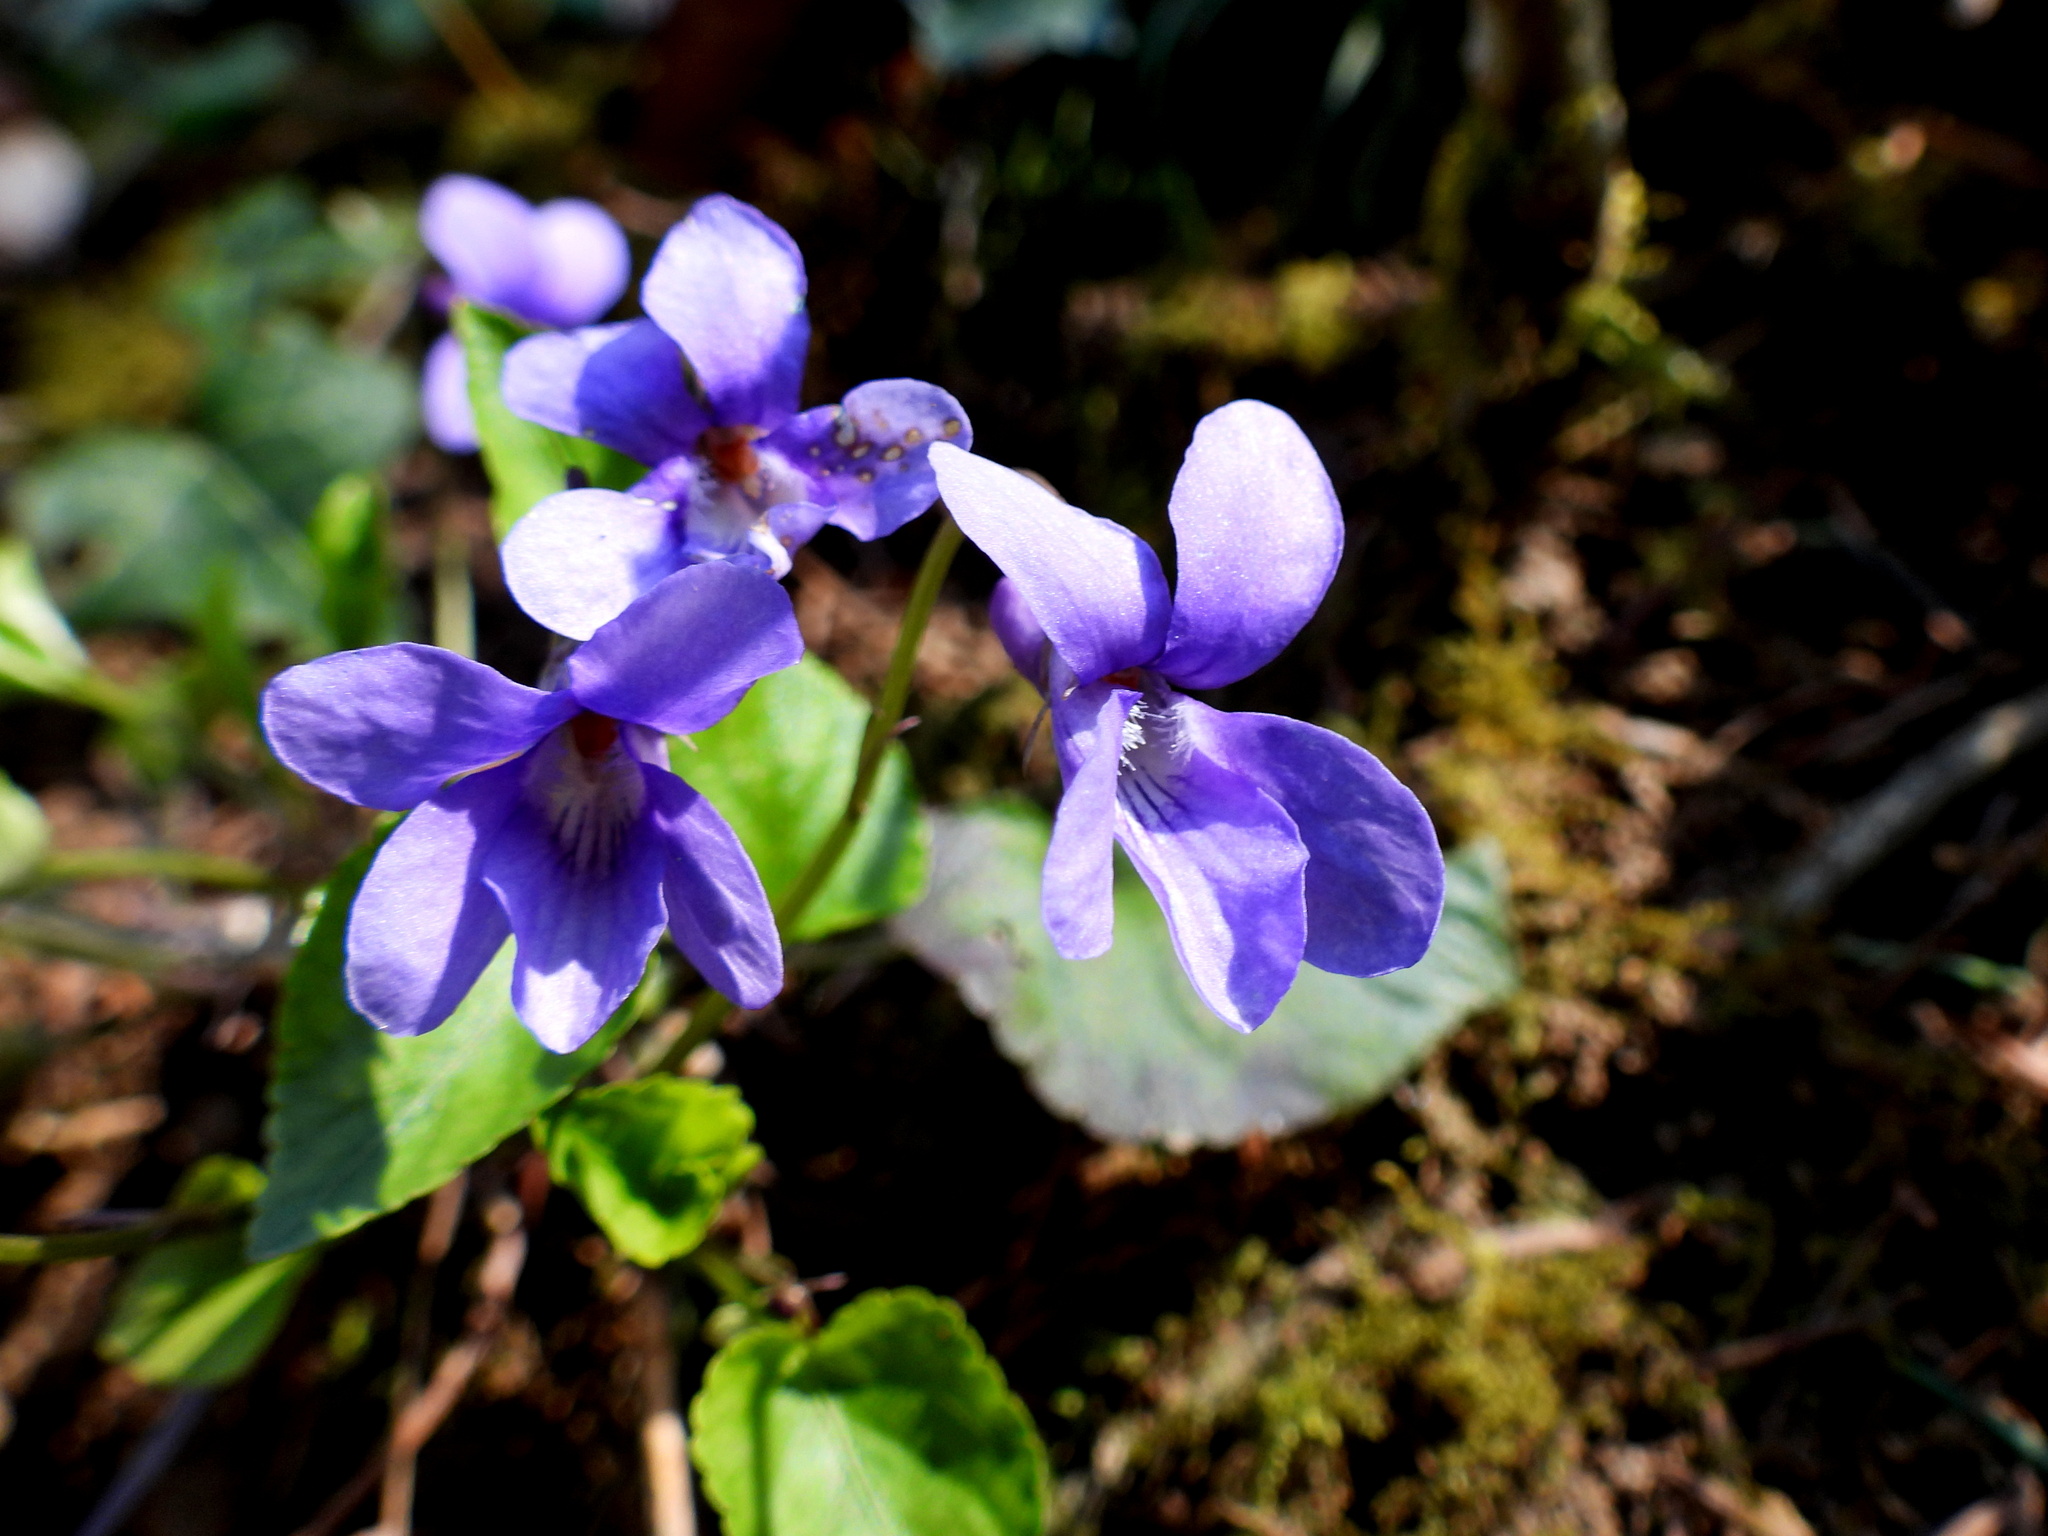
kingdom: Plantae
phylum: Tracheophyta
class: Magnoliopsida
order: Malpighiales
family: Violaceae
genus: Viola
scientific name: Viola reichenbachiana
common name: Early dog-violet
